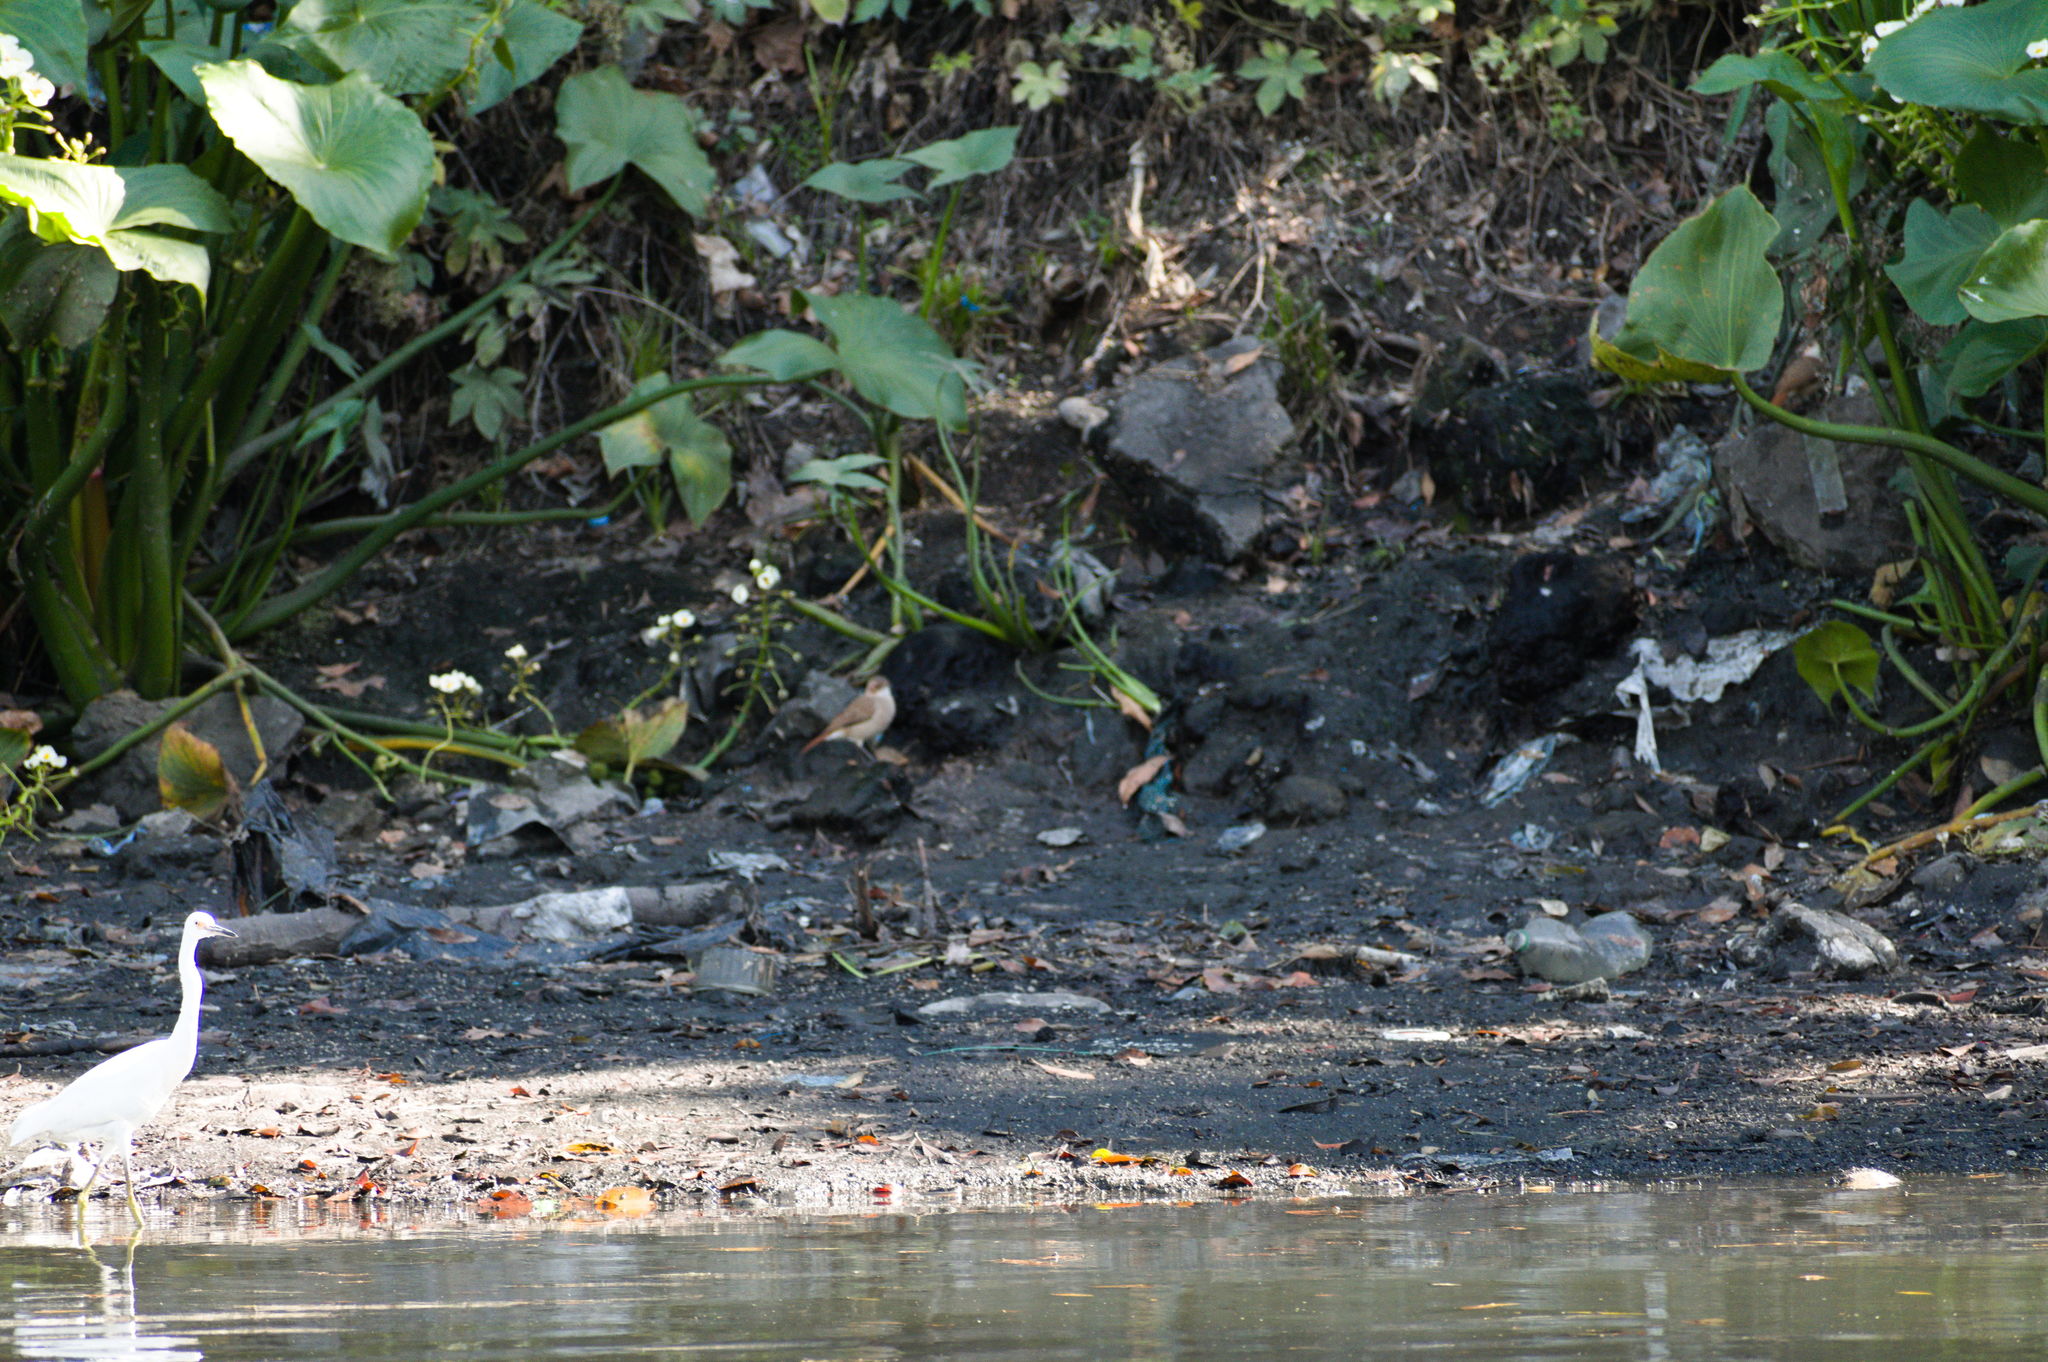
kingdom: Animalia
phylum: Chordata
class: Aves
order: Passeriformes
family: Furnariidae
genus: Furnarius
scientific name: Furnarius rufus
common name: Rufous hornero
